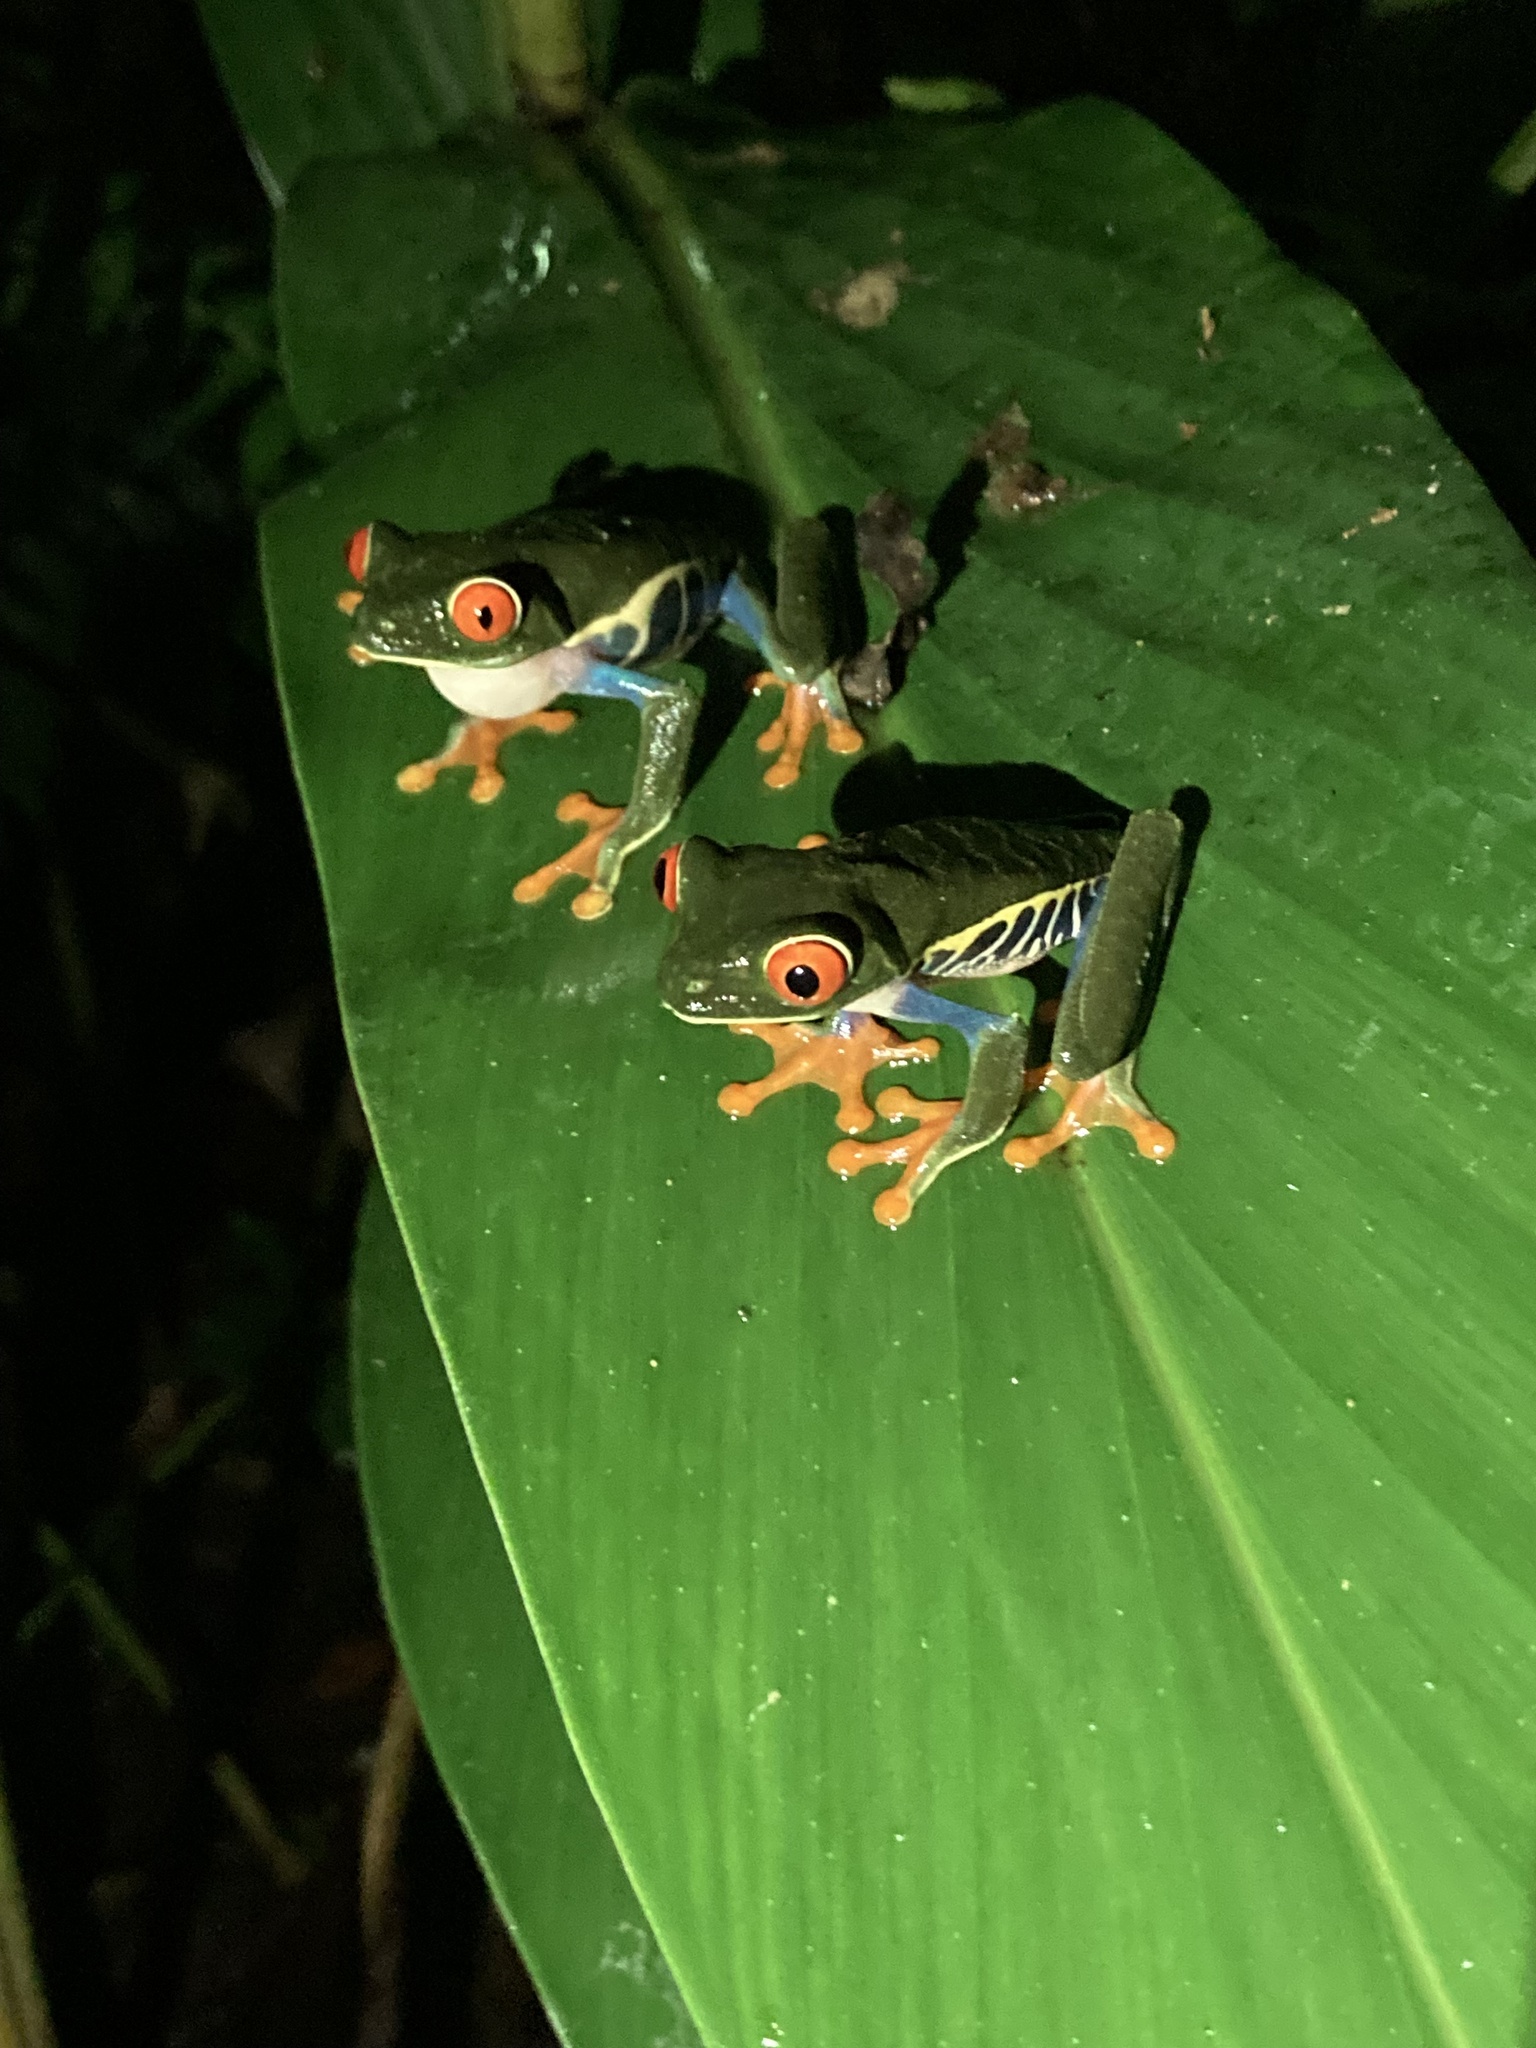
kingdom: Animalia
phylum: Chordata
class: Amphibia
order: Anura
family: Phyllomedusidae
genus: Agalychnis
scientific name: Agalychnis callidryas
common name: Red-eyed treefrog
